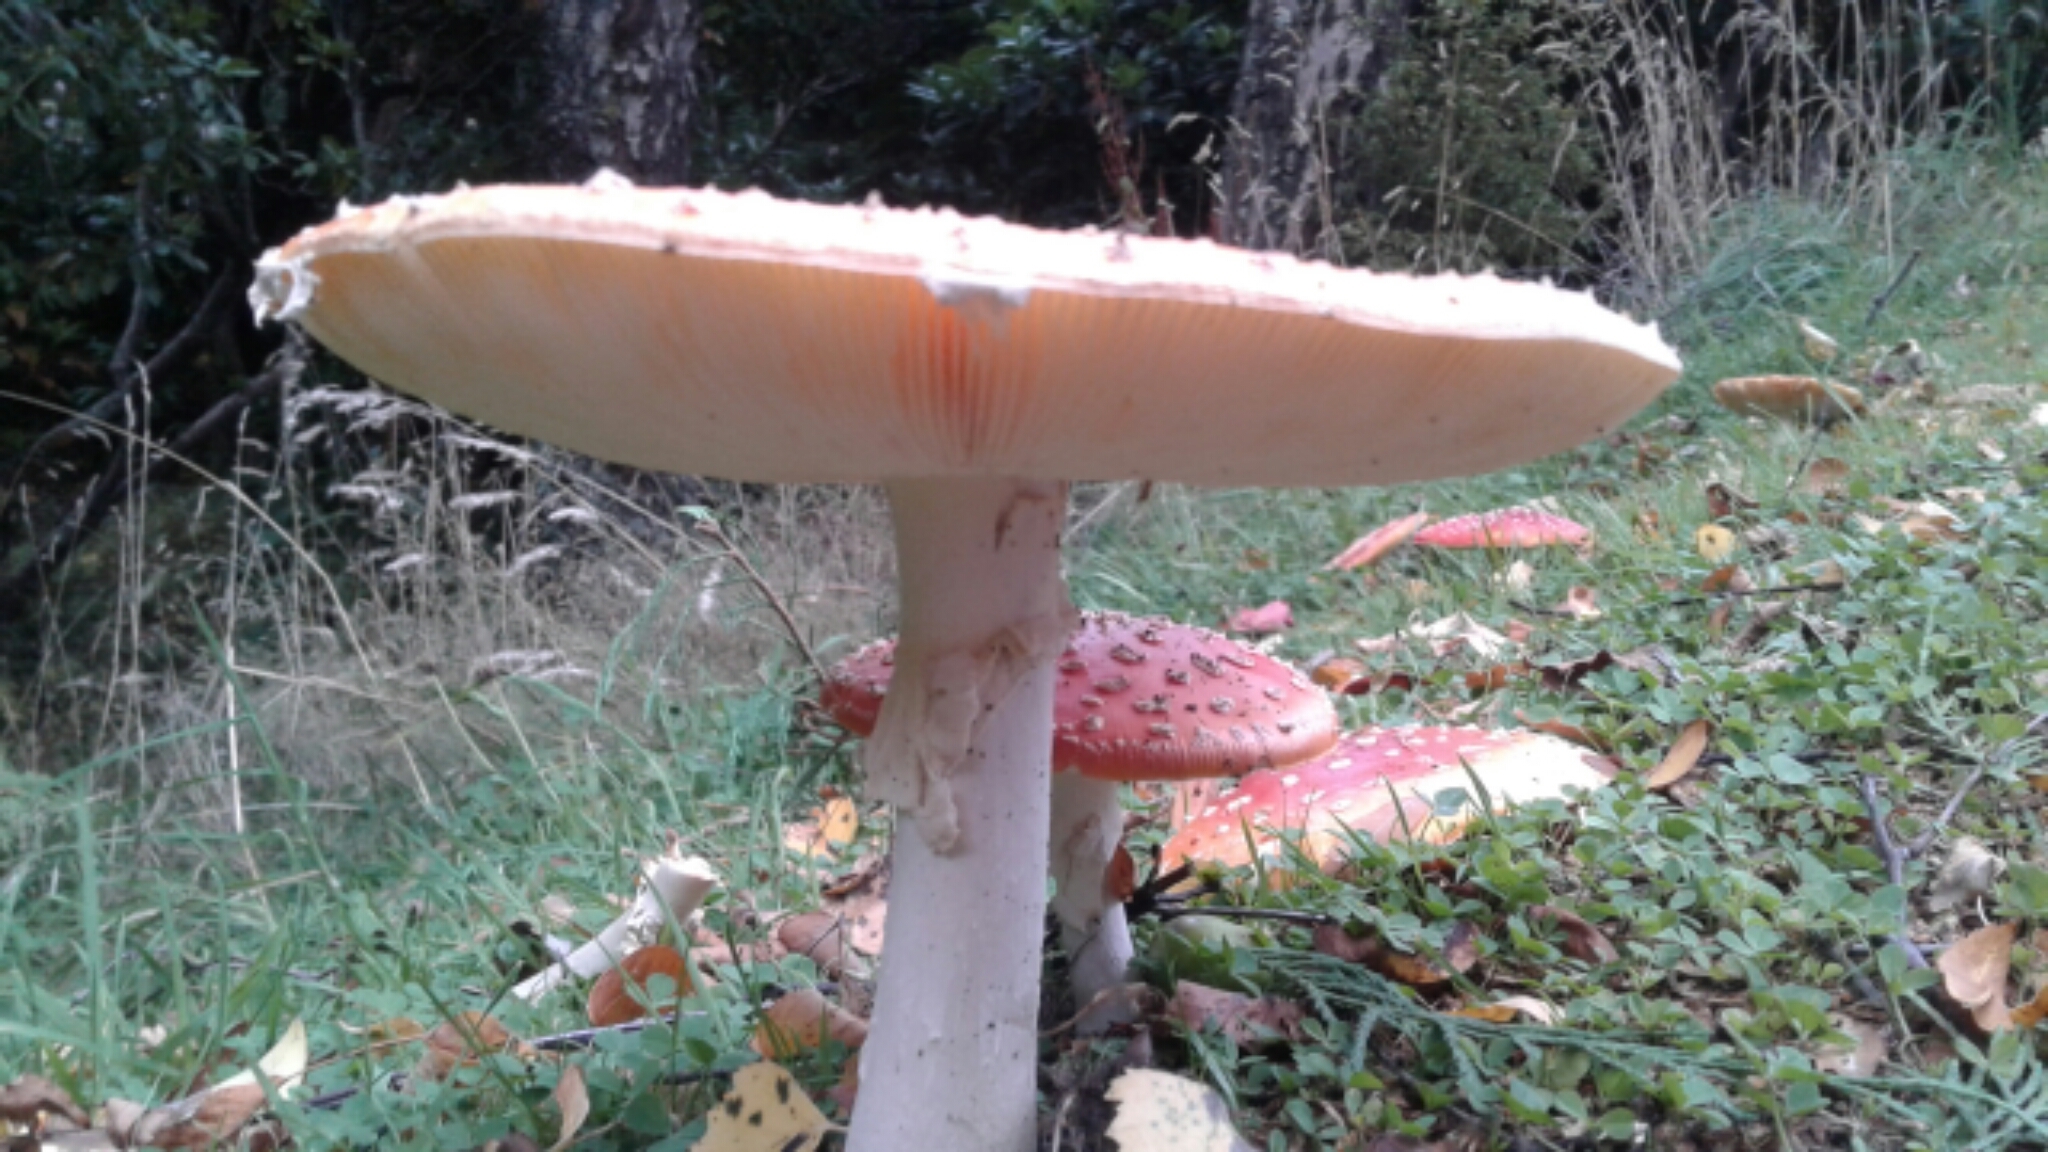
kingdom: Fungi
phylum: Basidiomycota
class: Agaricomycetes
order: Agaricales
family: Amanitaceae
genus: Amanita
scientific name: Amanita muscaria
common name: Fly agaric
